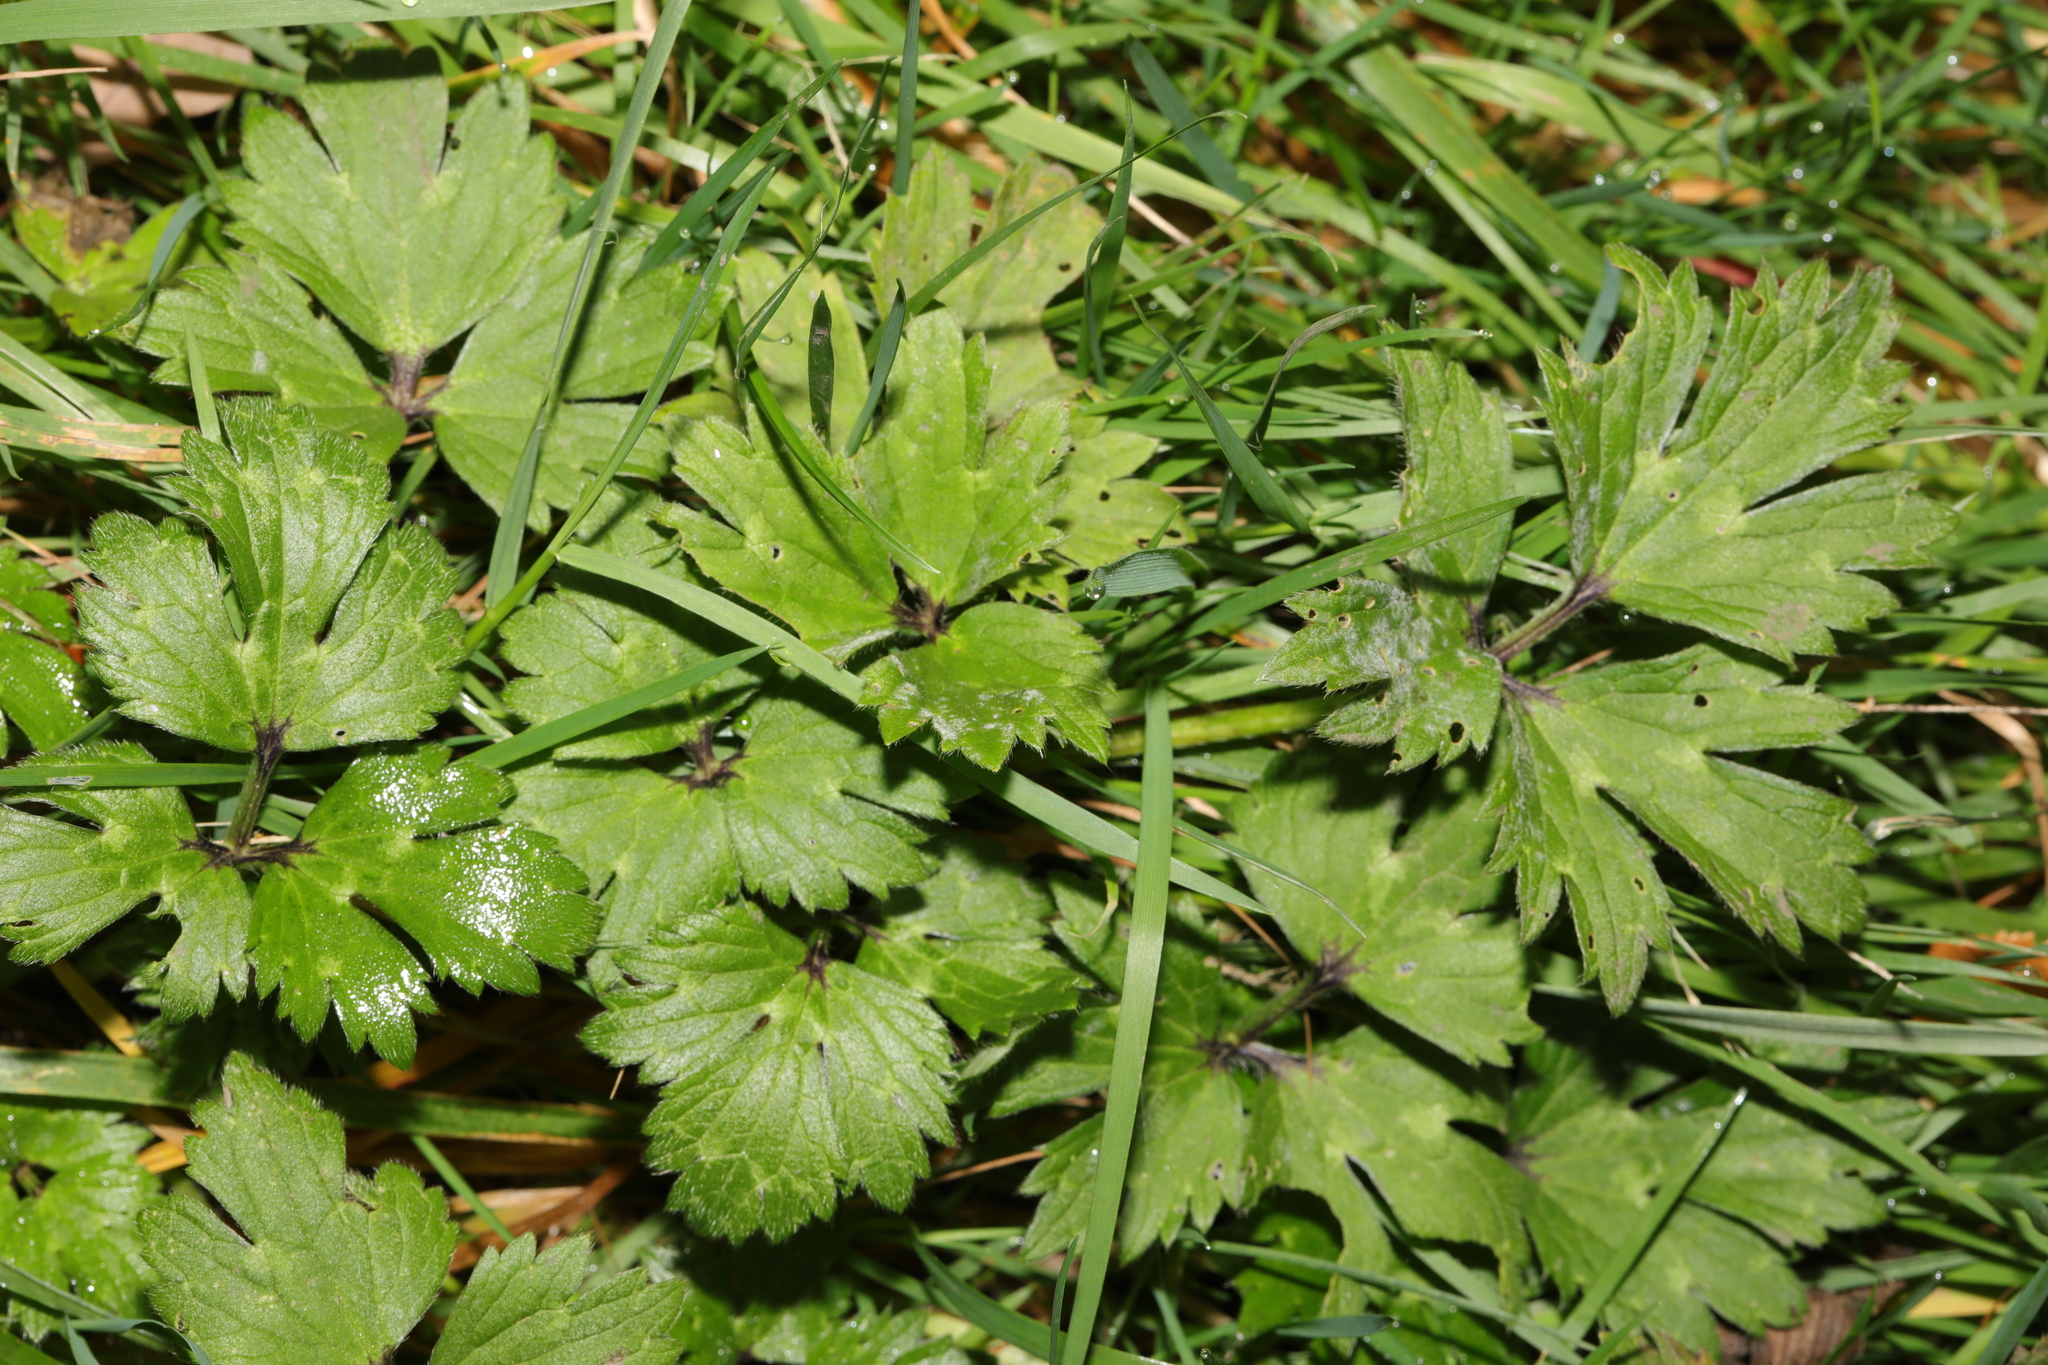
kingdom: Plantae
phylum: Tracheophyta
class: Magnoliopsida
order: Ranunculales
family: Ranunculaceae
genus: Ranunculus
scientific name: Ranunculus repens
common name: Creeping buttercup
